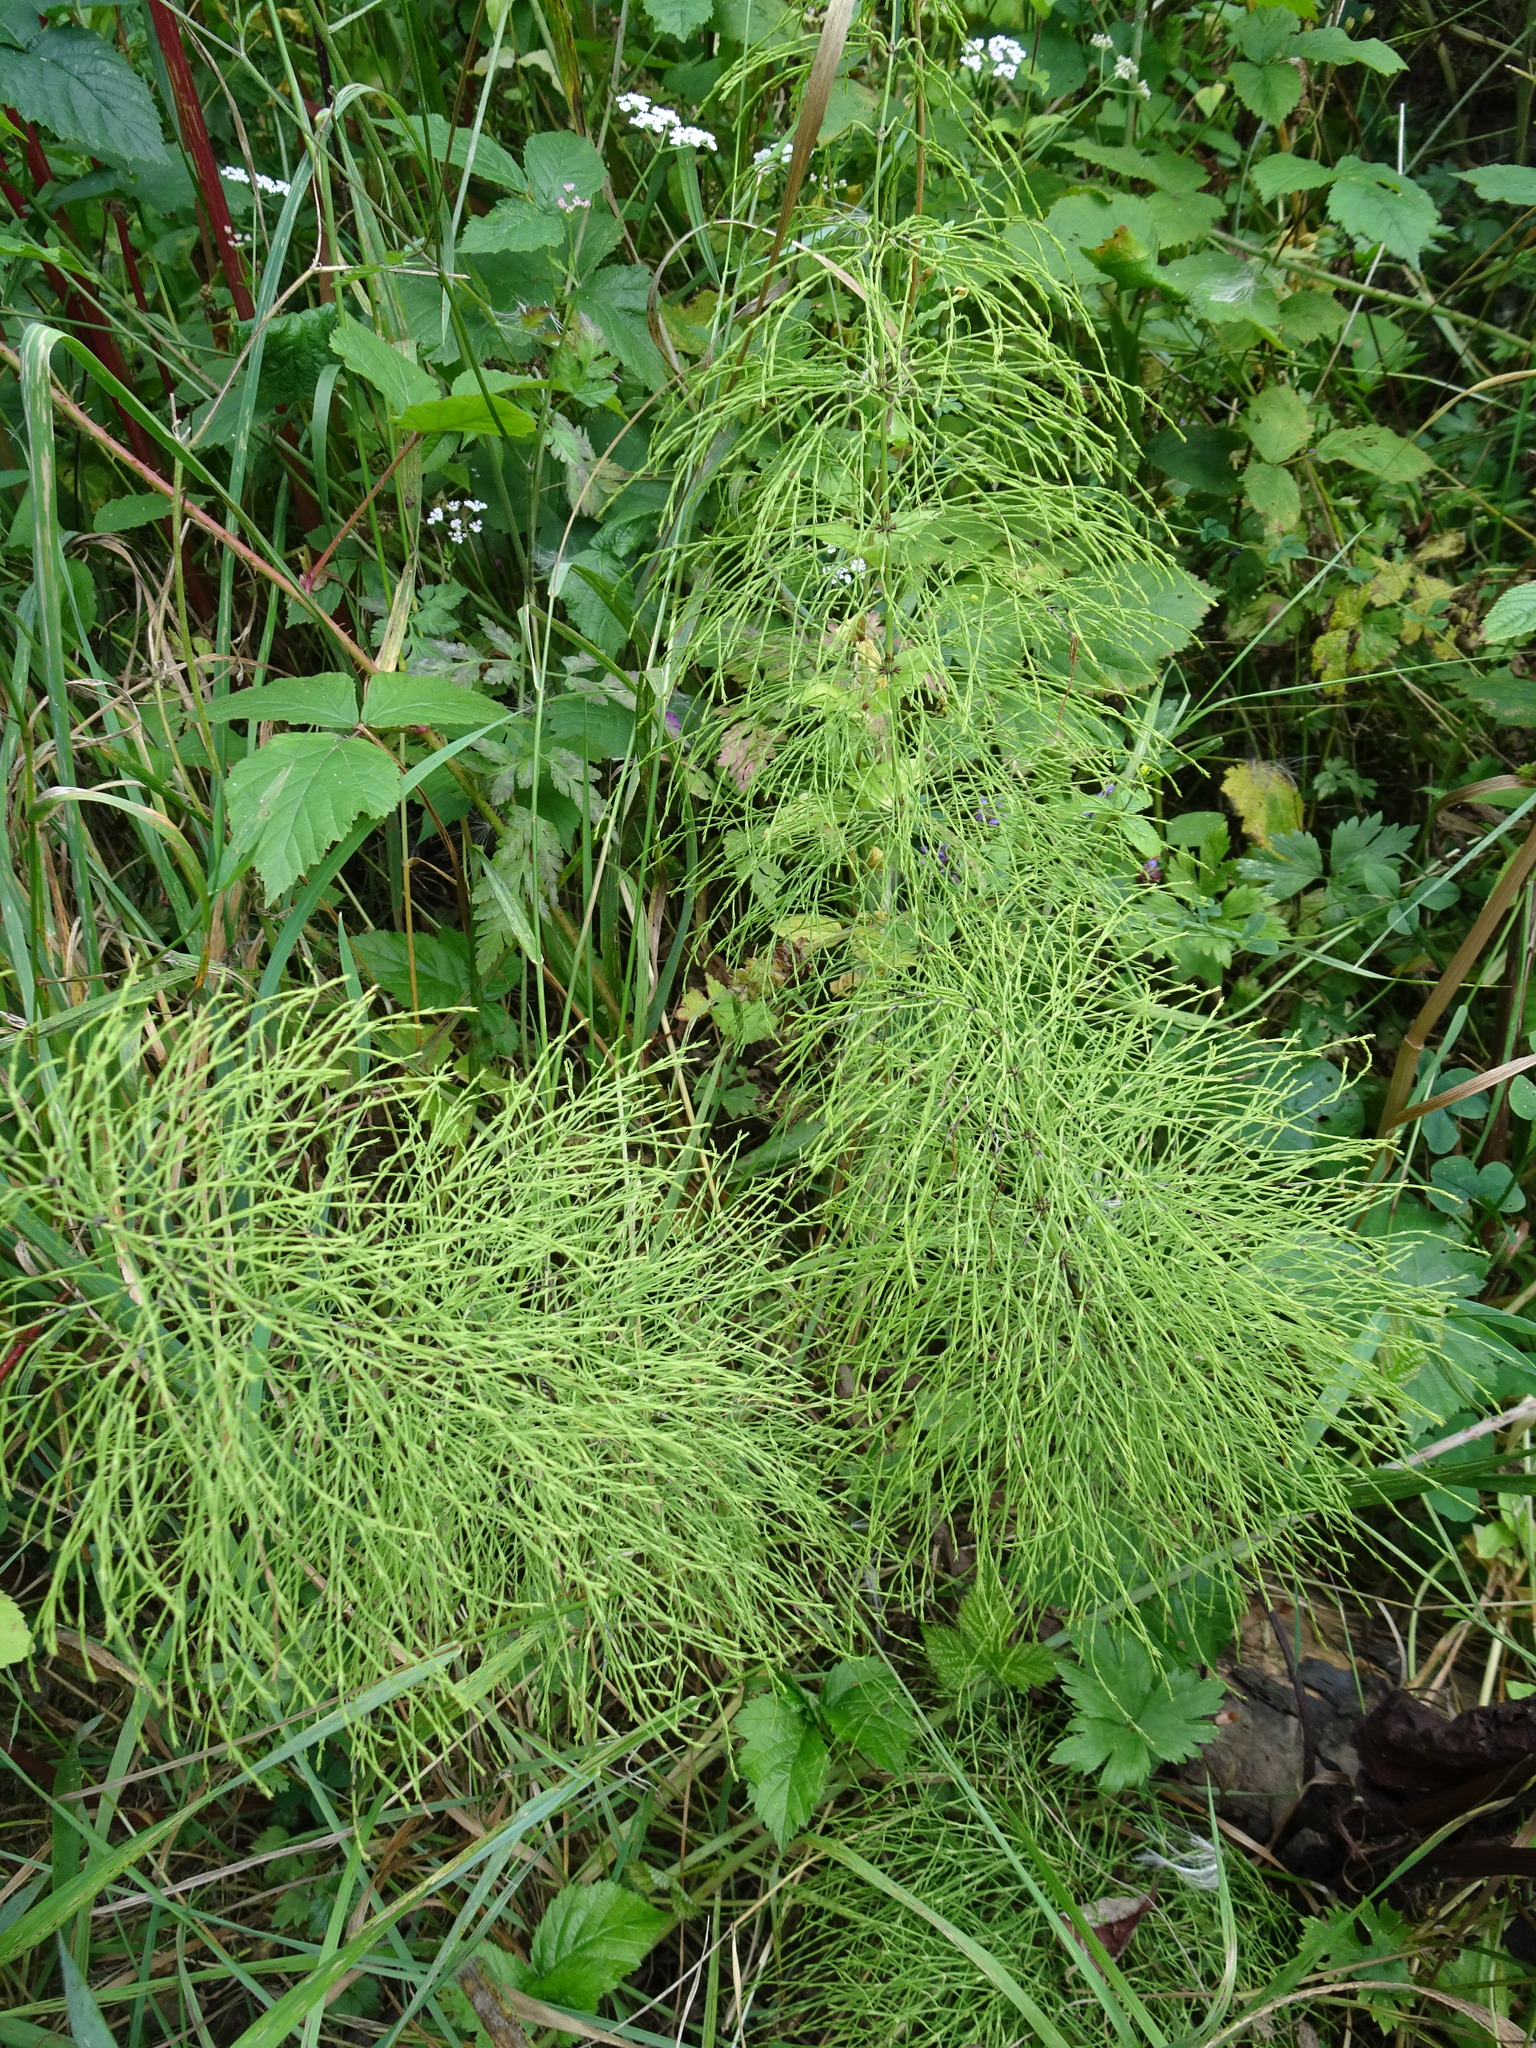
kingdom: Plantae
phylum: Tracheophyta
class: Polypodiopsida
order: Equisetales
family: Equisetaceae
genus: Equisetum
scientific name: Equisetum sylvaticum
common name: Wood horsetail
